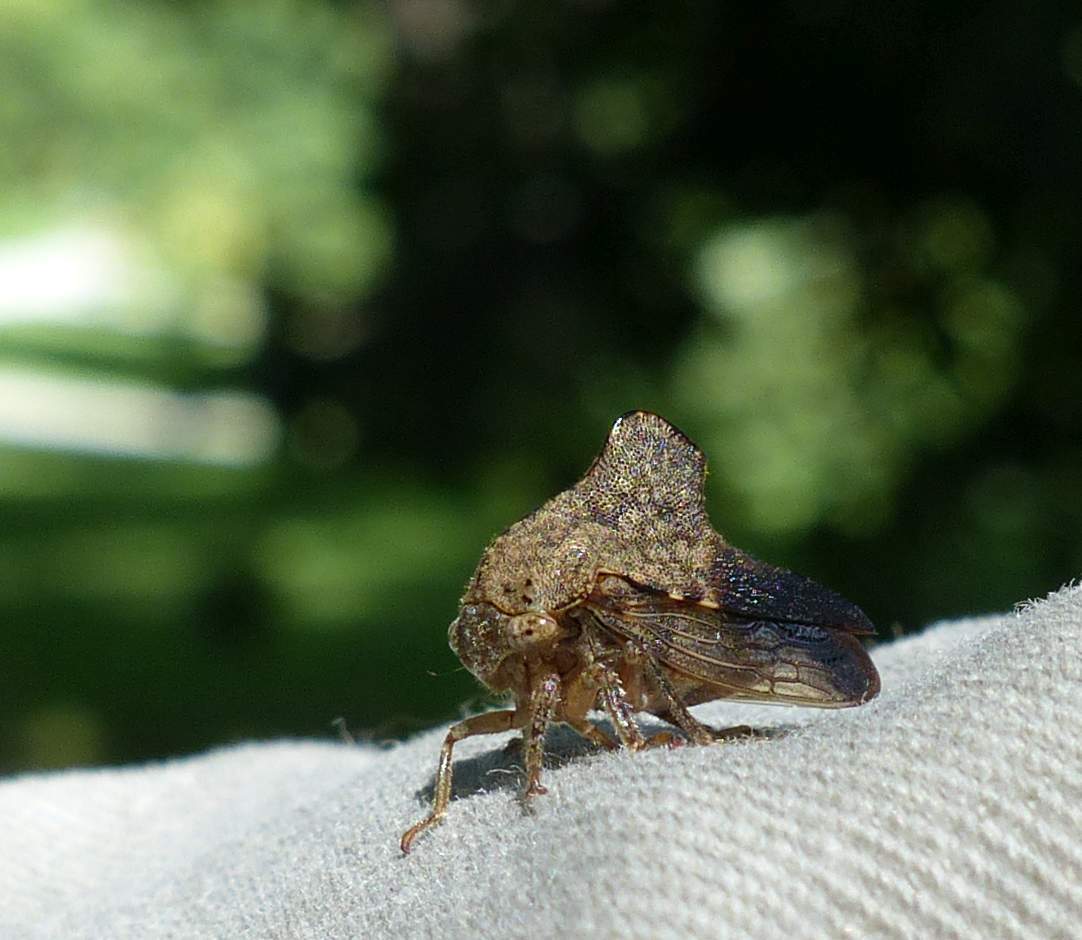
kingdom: Animalia
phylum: Arthropoda
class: Insecta
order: Hemiptera
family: Membracidae
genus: Telamona
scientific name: Telamona spreta
